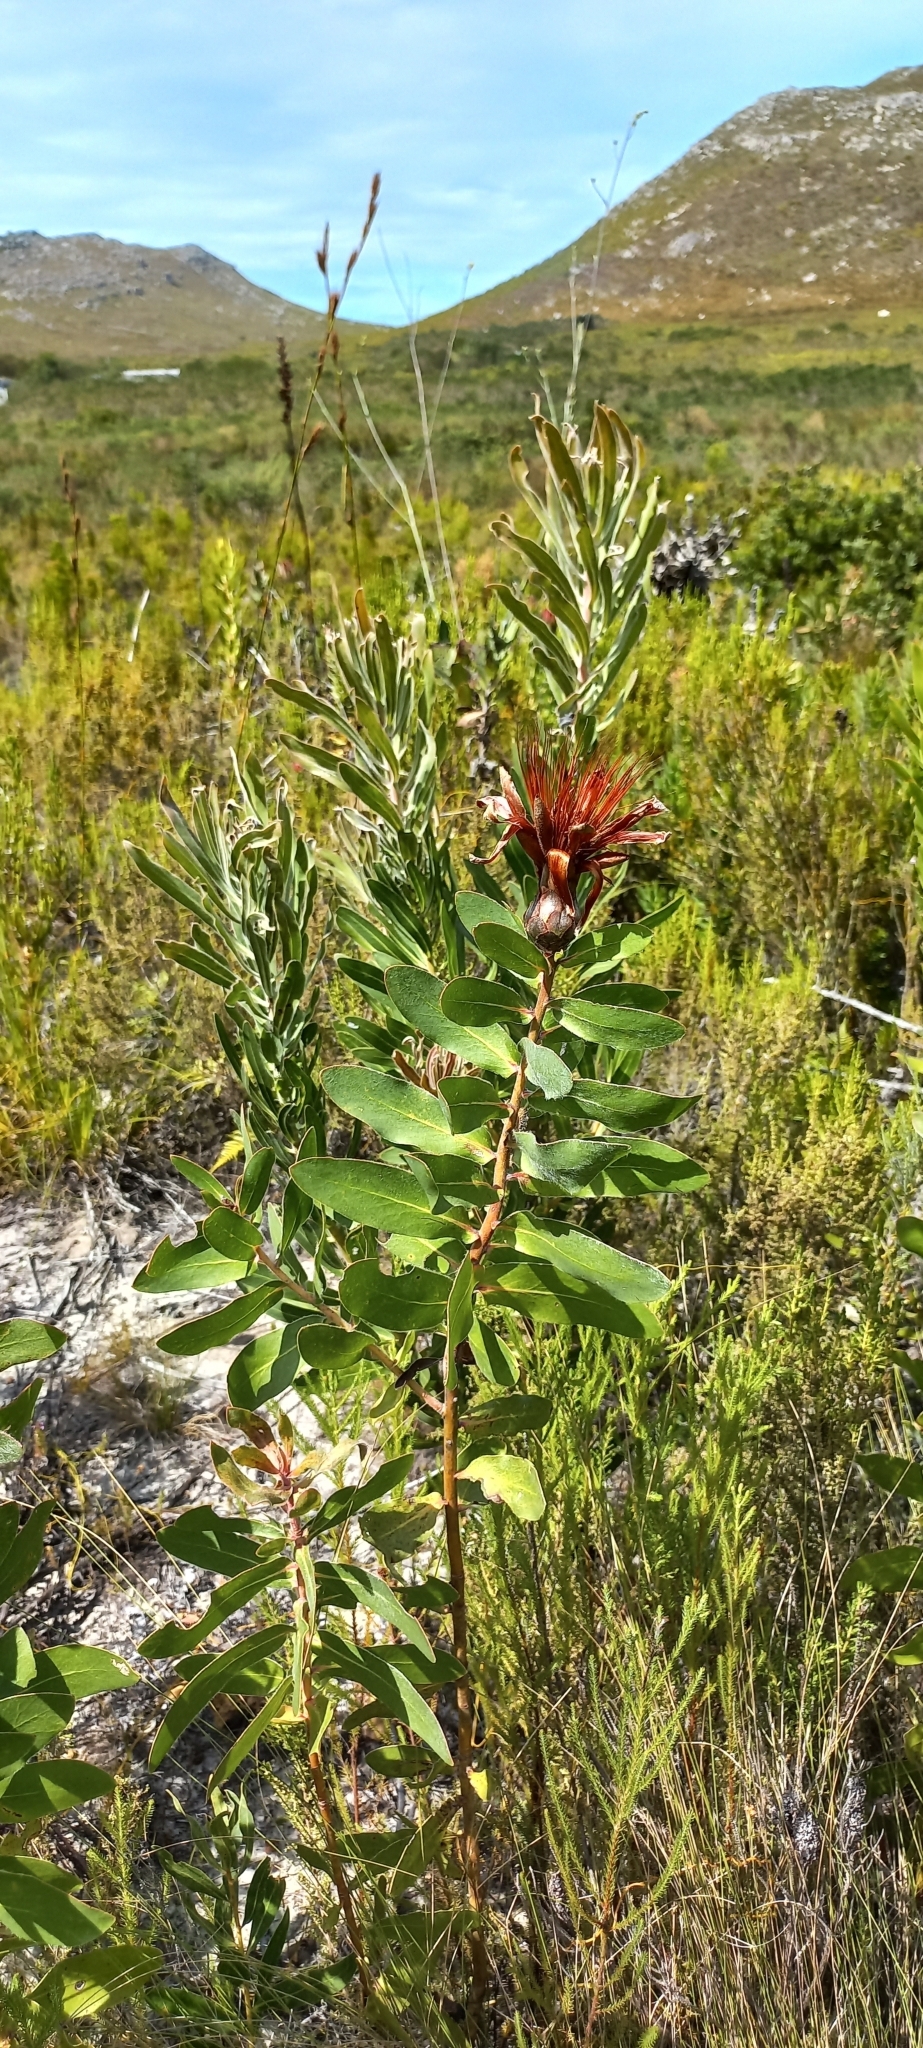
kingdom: Plantae
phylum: Tracheophyta
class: Magnoliopsida
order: Proteales
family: Proteaceae
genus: Protea
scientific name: Protea mundii
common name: Forest sugarbush
